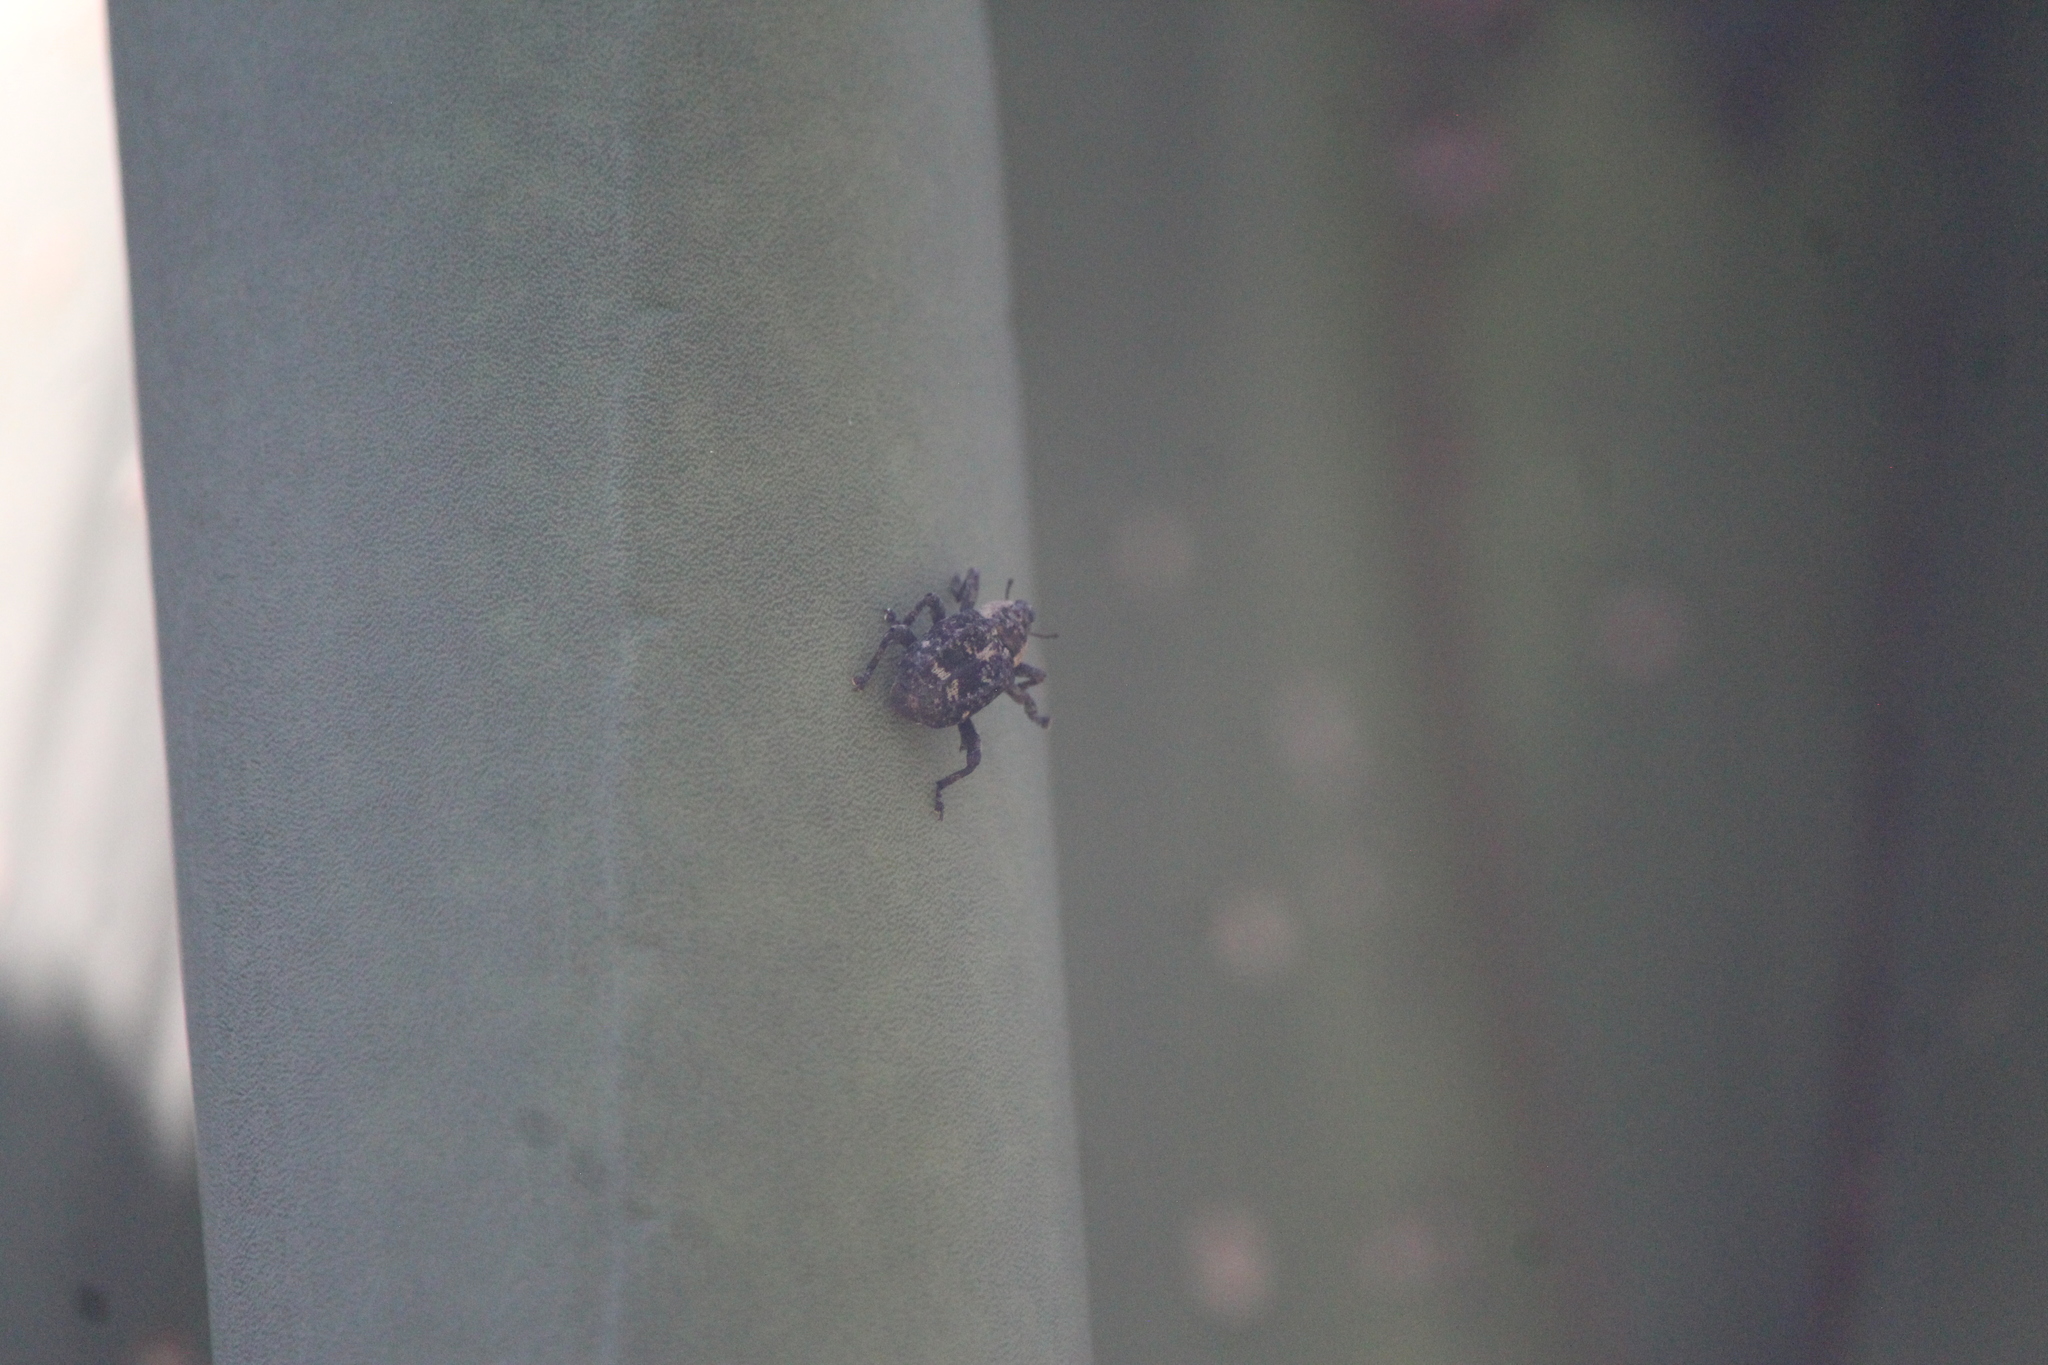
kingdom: Animalia
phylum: Arthropoda
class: Insecta
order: Coleoptera
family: Curculionidae
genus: Peltophorus
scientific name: Peltophorus polymitus
